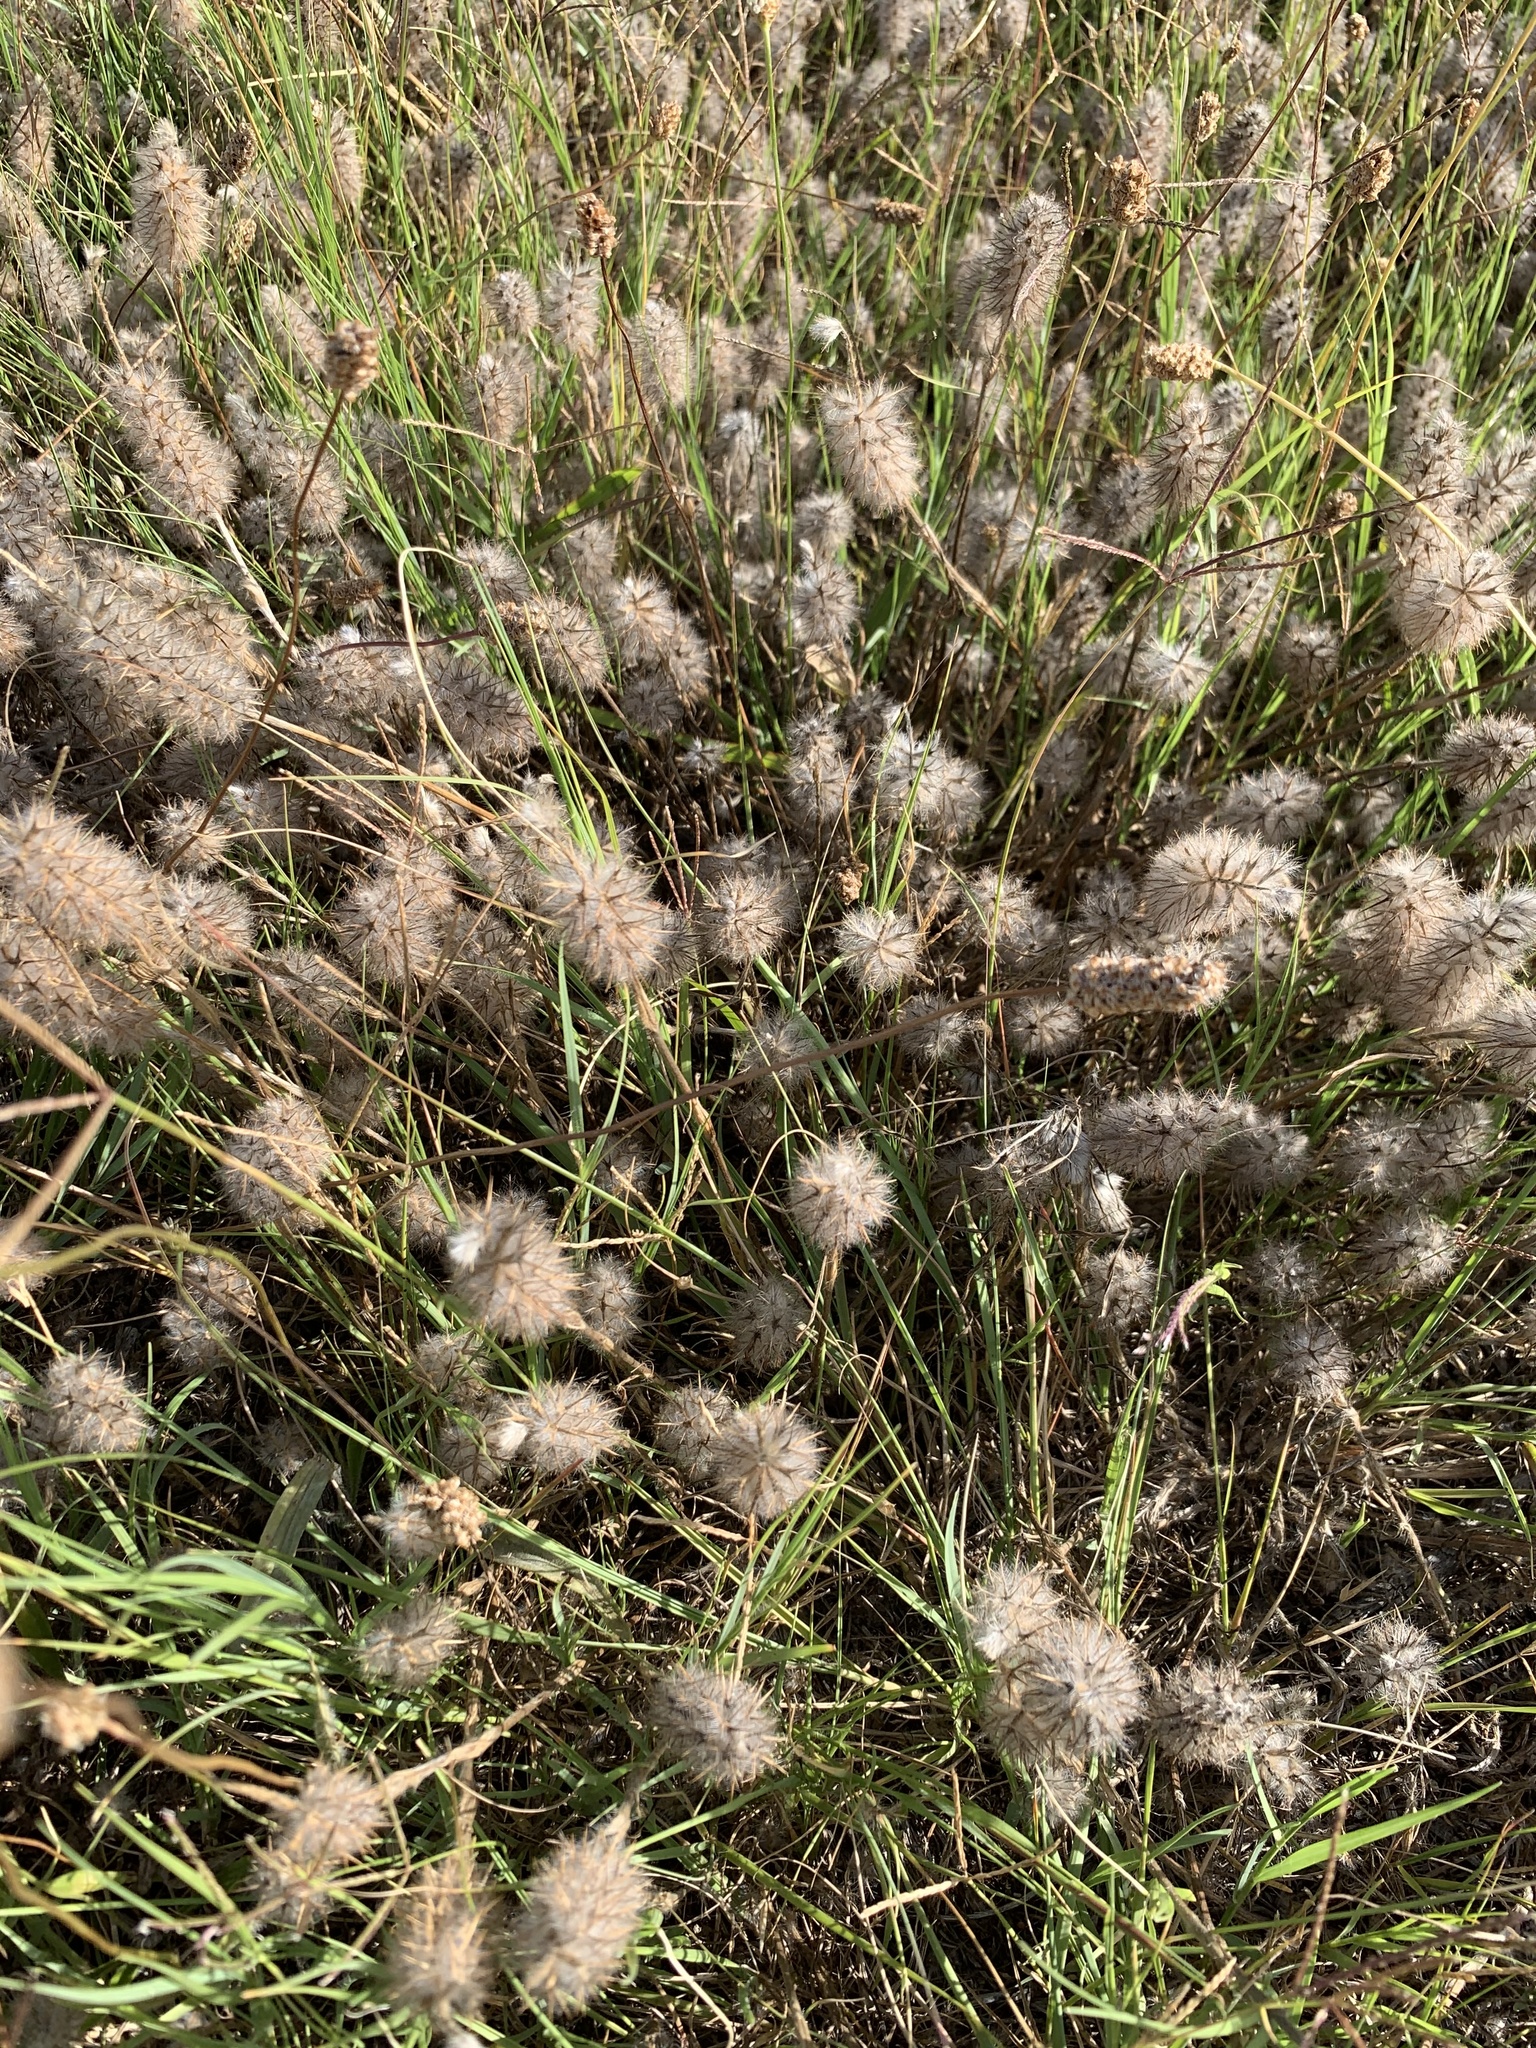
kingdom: Plantae
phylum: Tracheophyta
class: Magnoliopsida
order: Fabales
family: Fabaceae
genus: Trifolium
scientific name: Trifolium angustifolium
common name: Narrow clover
